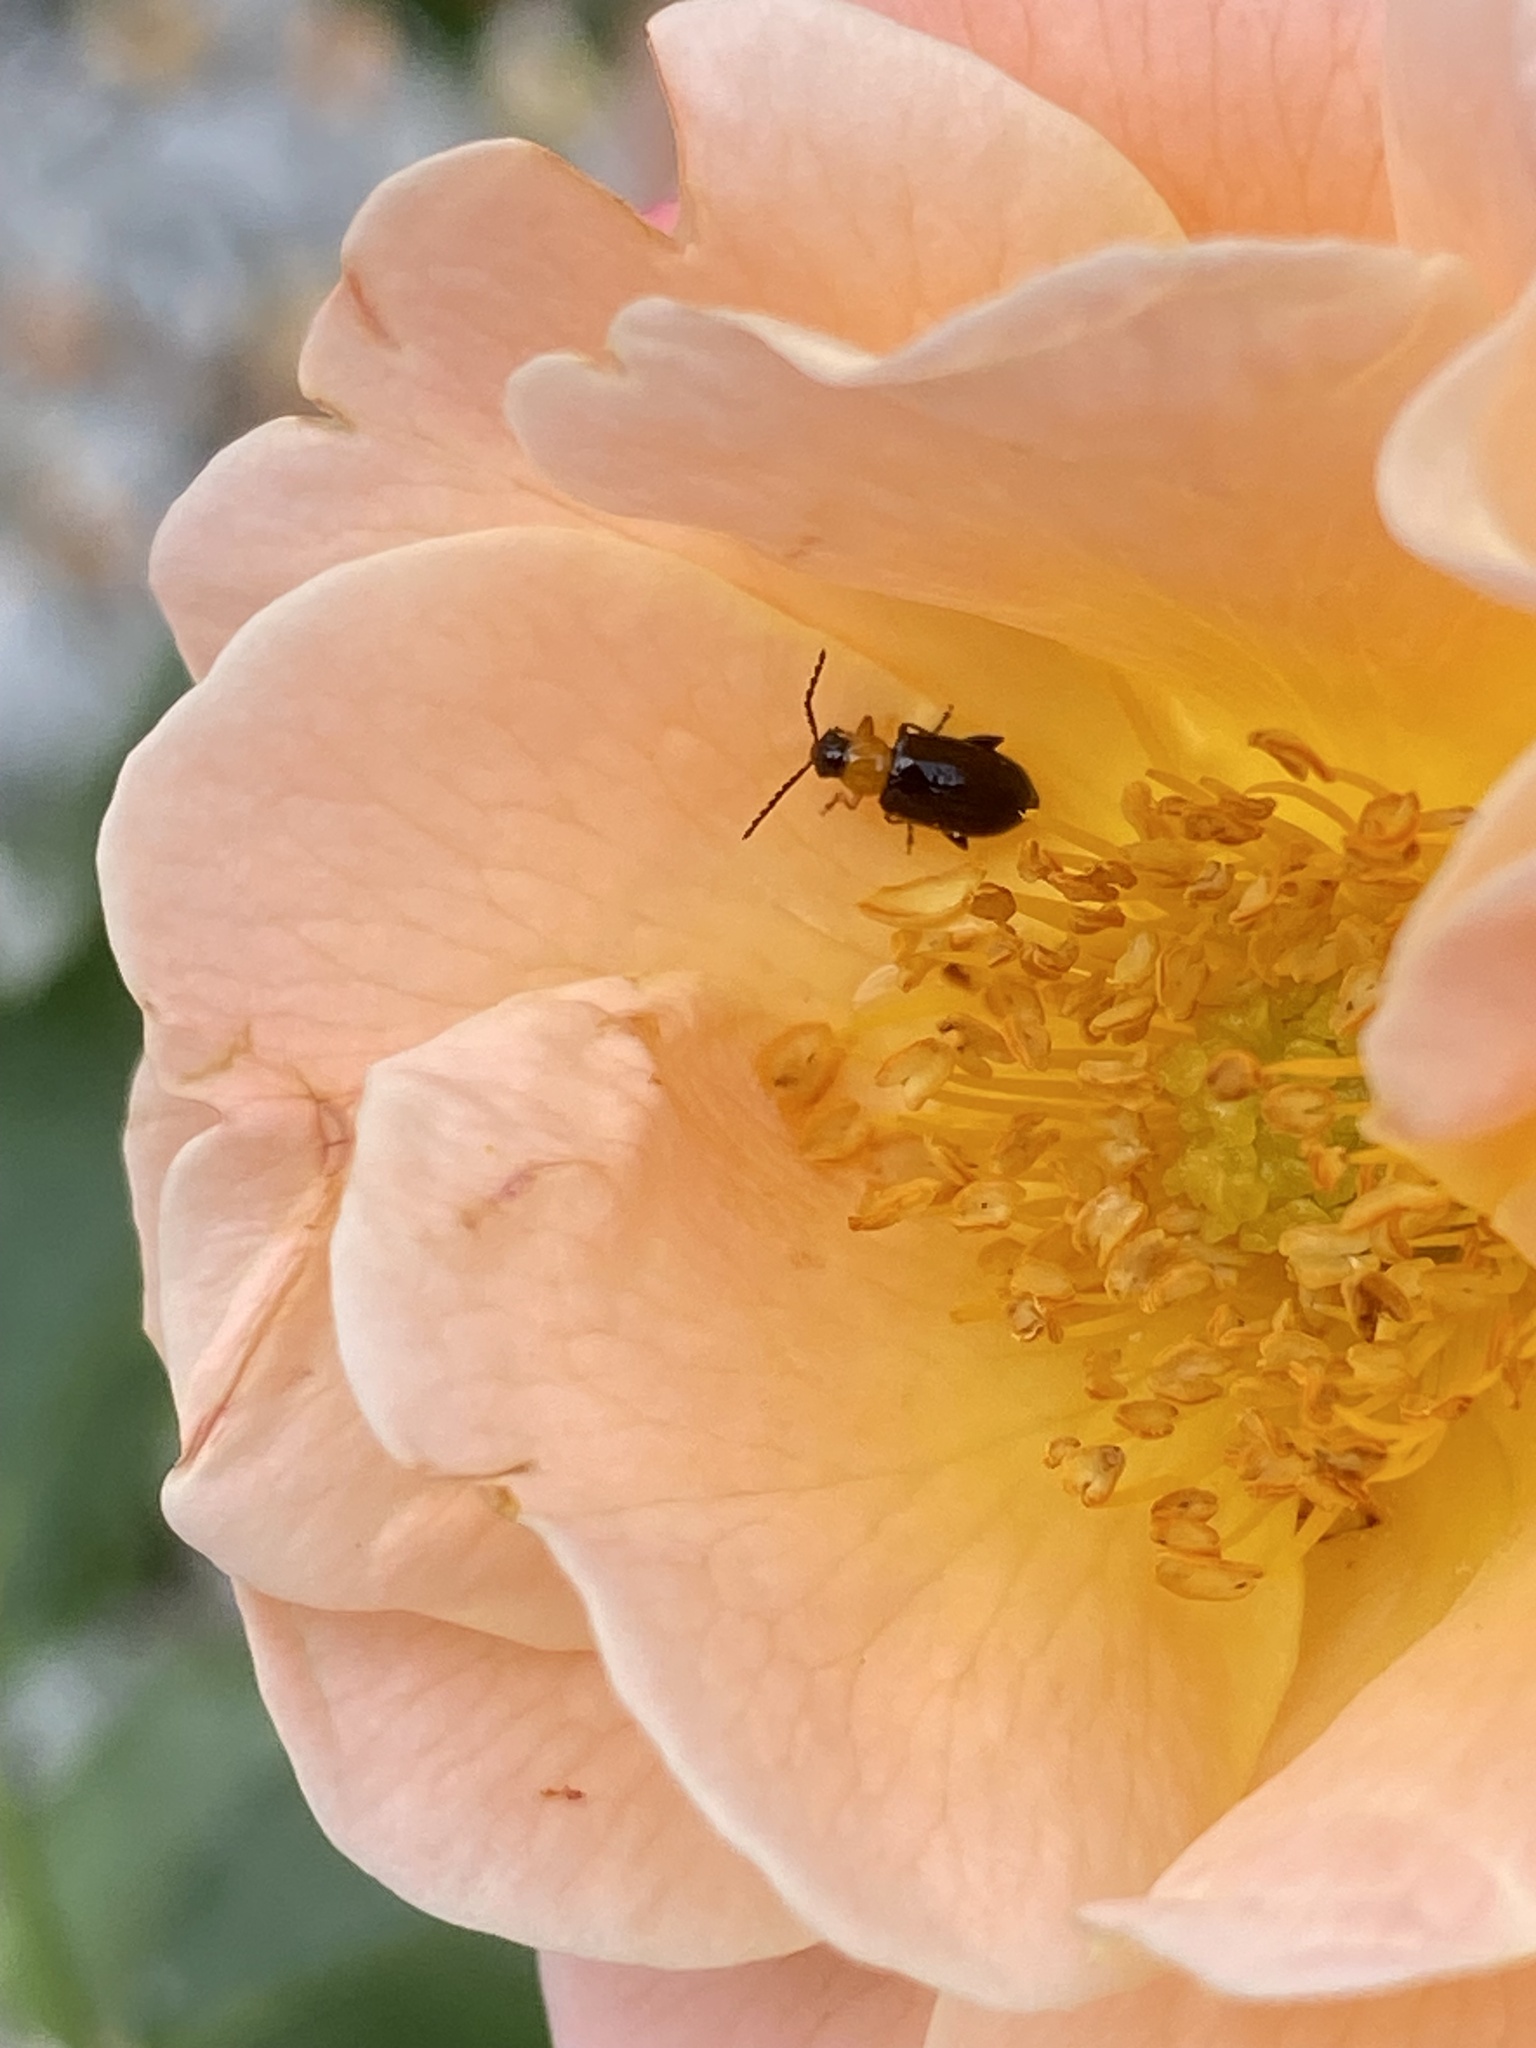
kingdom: Animalia
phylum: Arthropoda
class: Insecta
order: Coleoptera
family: Chrysomelidae
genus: Luperomorpha
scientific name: Luperomorpha xanthodera
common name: Rose flea beetle
